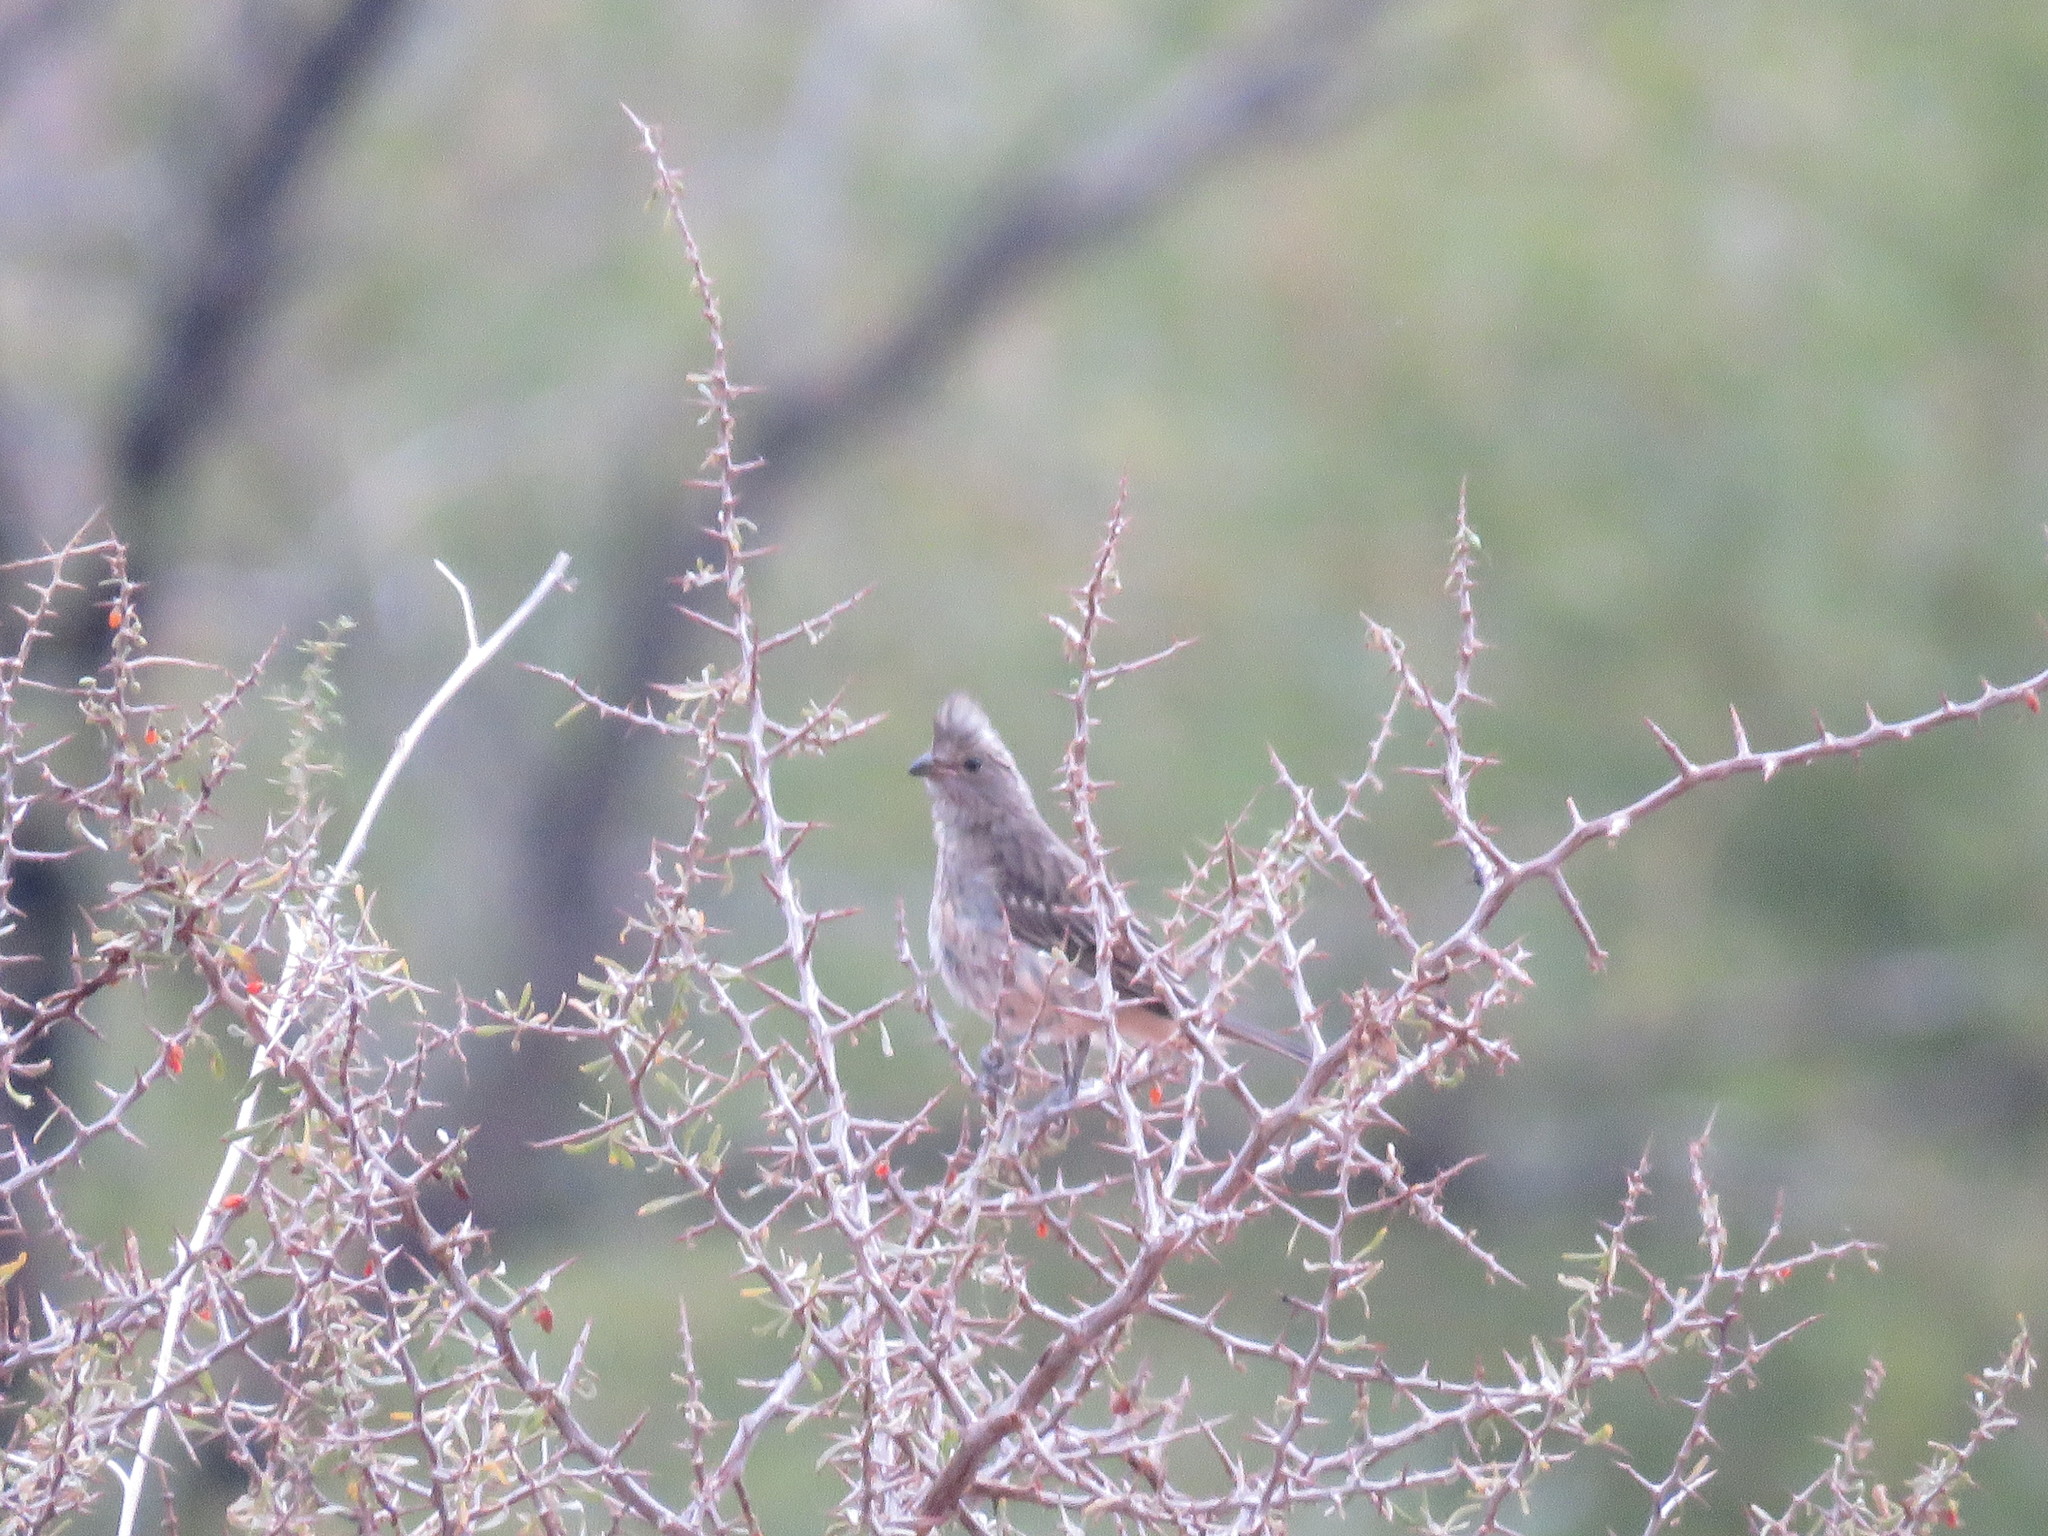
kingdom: Animalia
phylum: Chordata
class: Aves
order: Passeriformes
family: Cotingidae
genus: Phytotoma
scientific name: Phytotoma rutila
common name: White-tipped plantcutter
